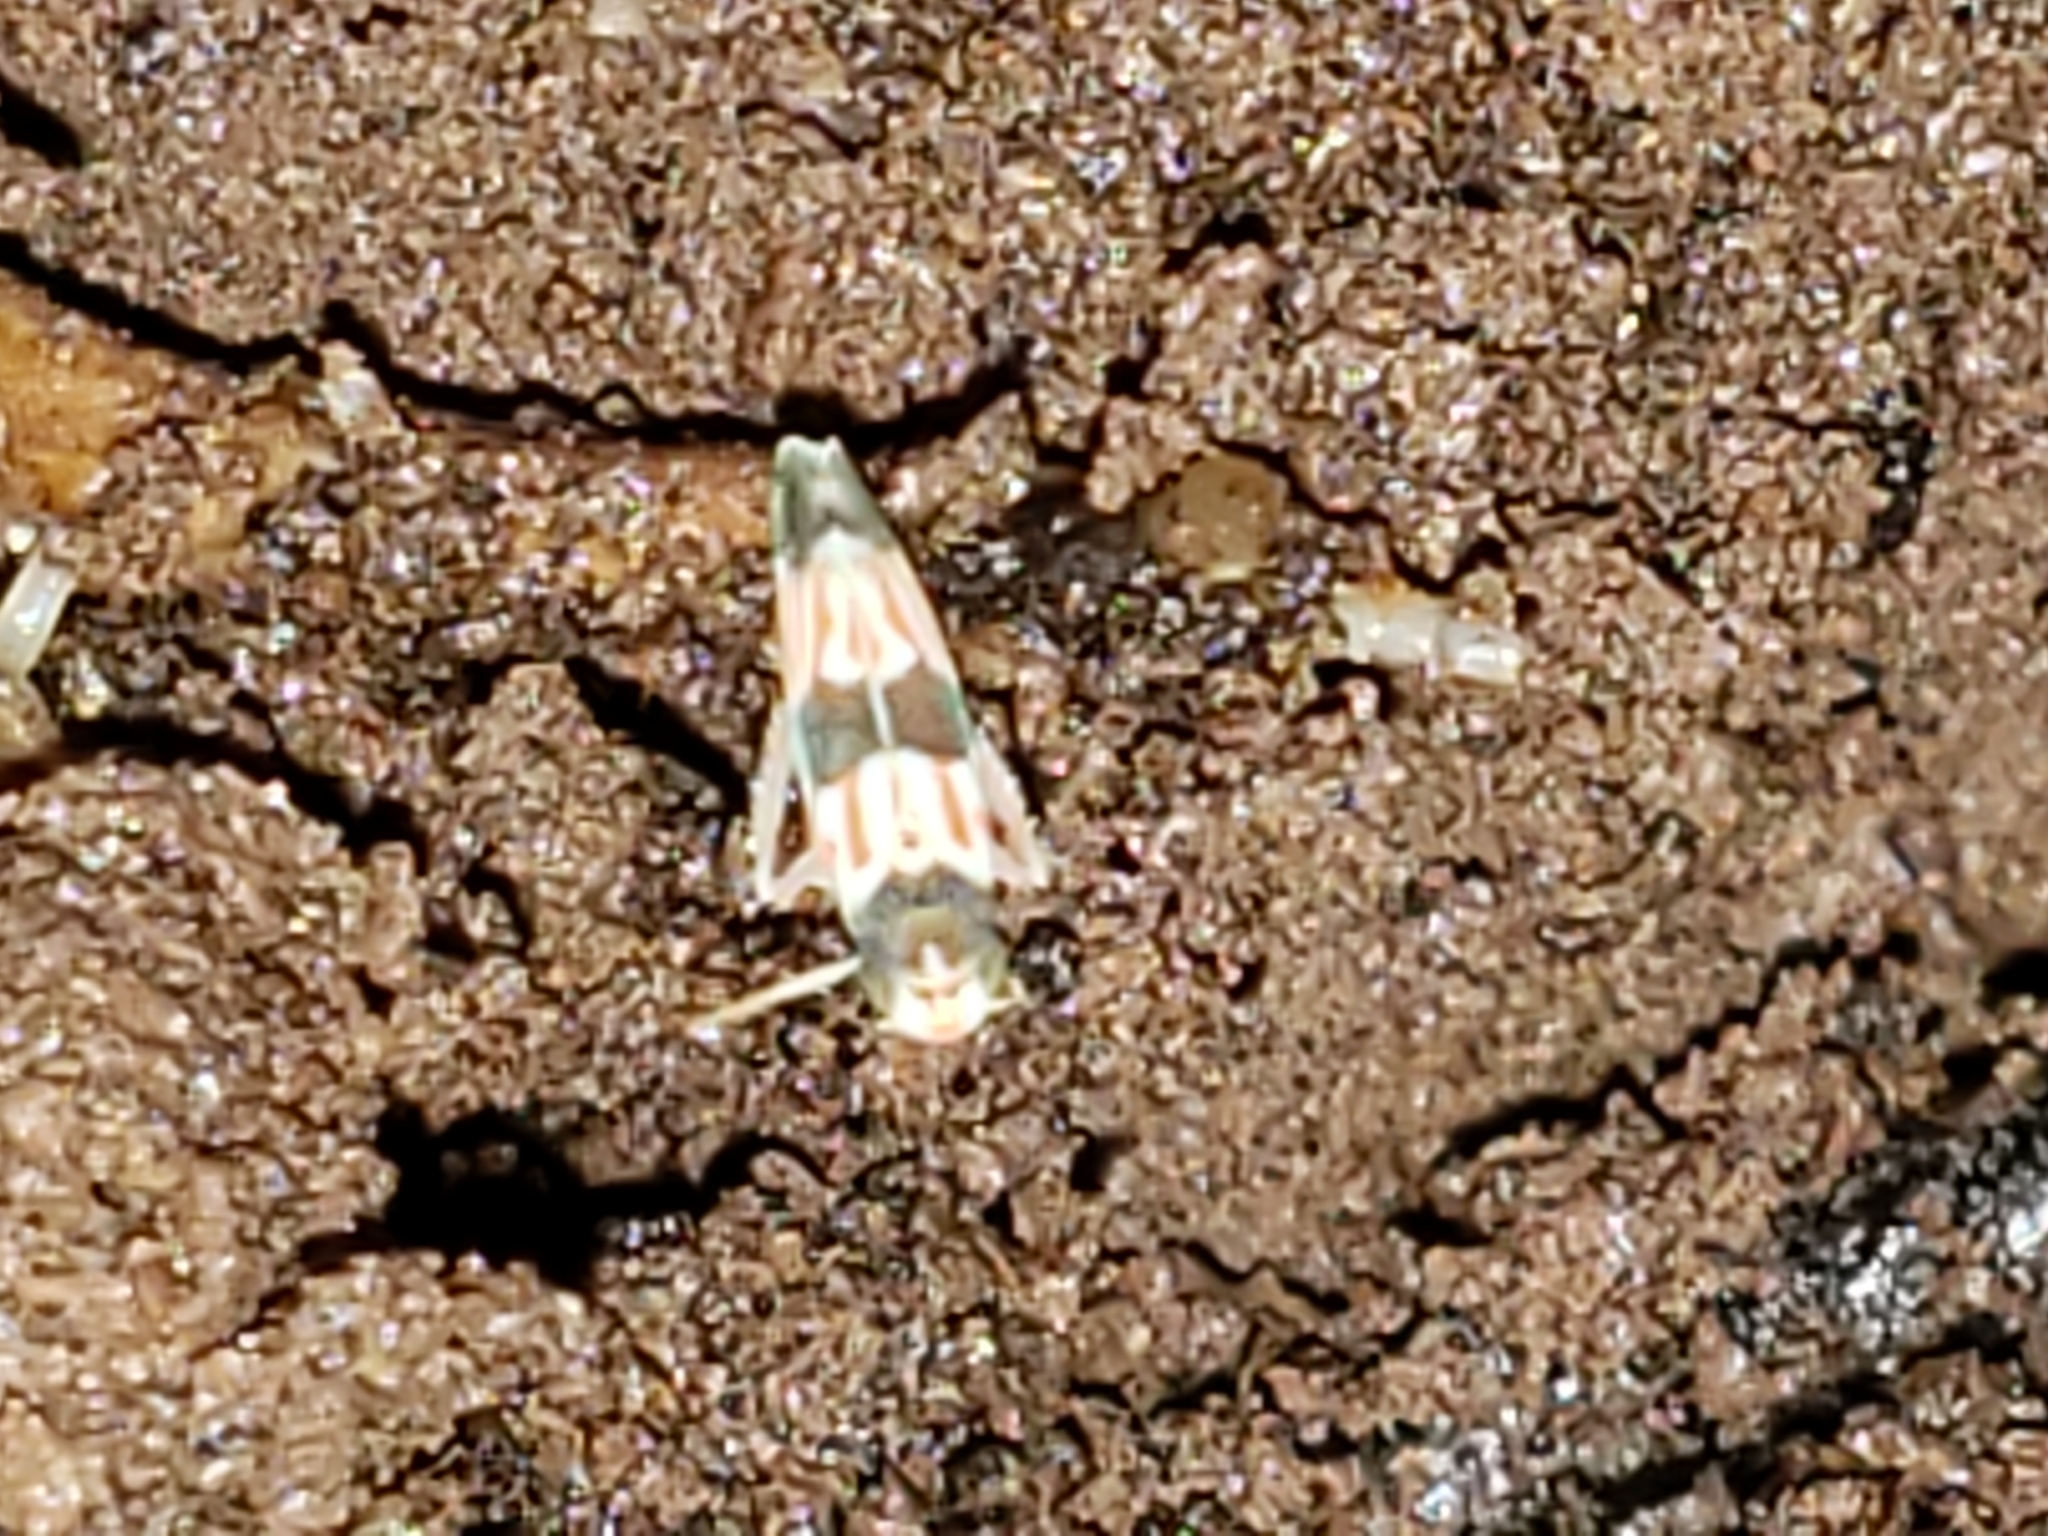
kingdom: Animalia
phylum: Arthropoda
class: Insecta
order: Hemiptera
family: Cicadellidae
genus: Erythroneura
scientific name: Erythroneura tricincta
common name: The threebanded grape leafhopper
